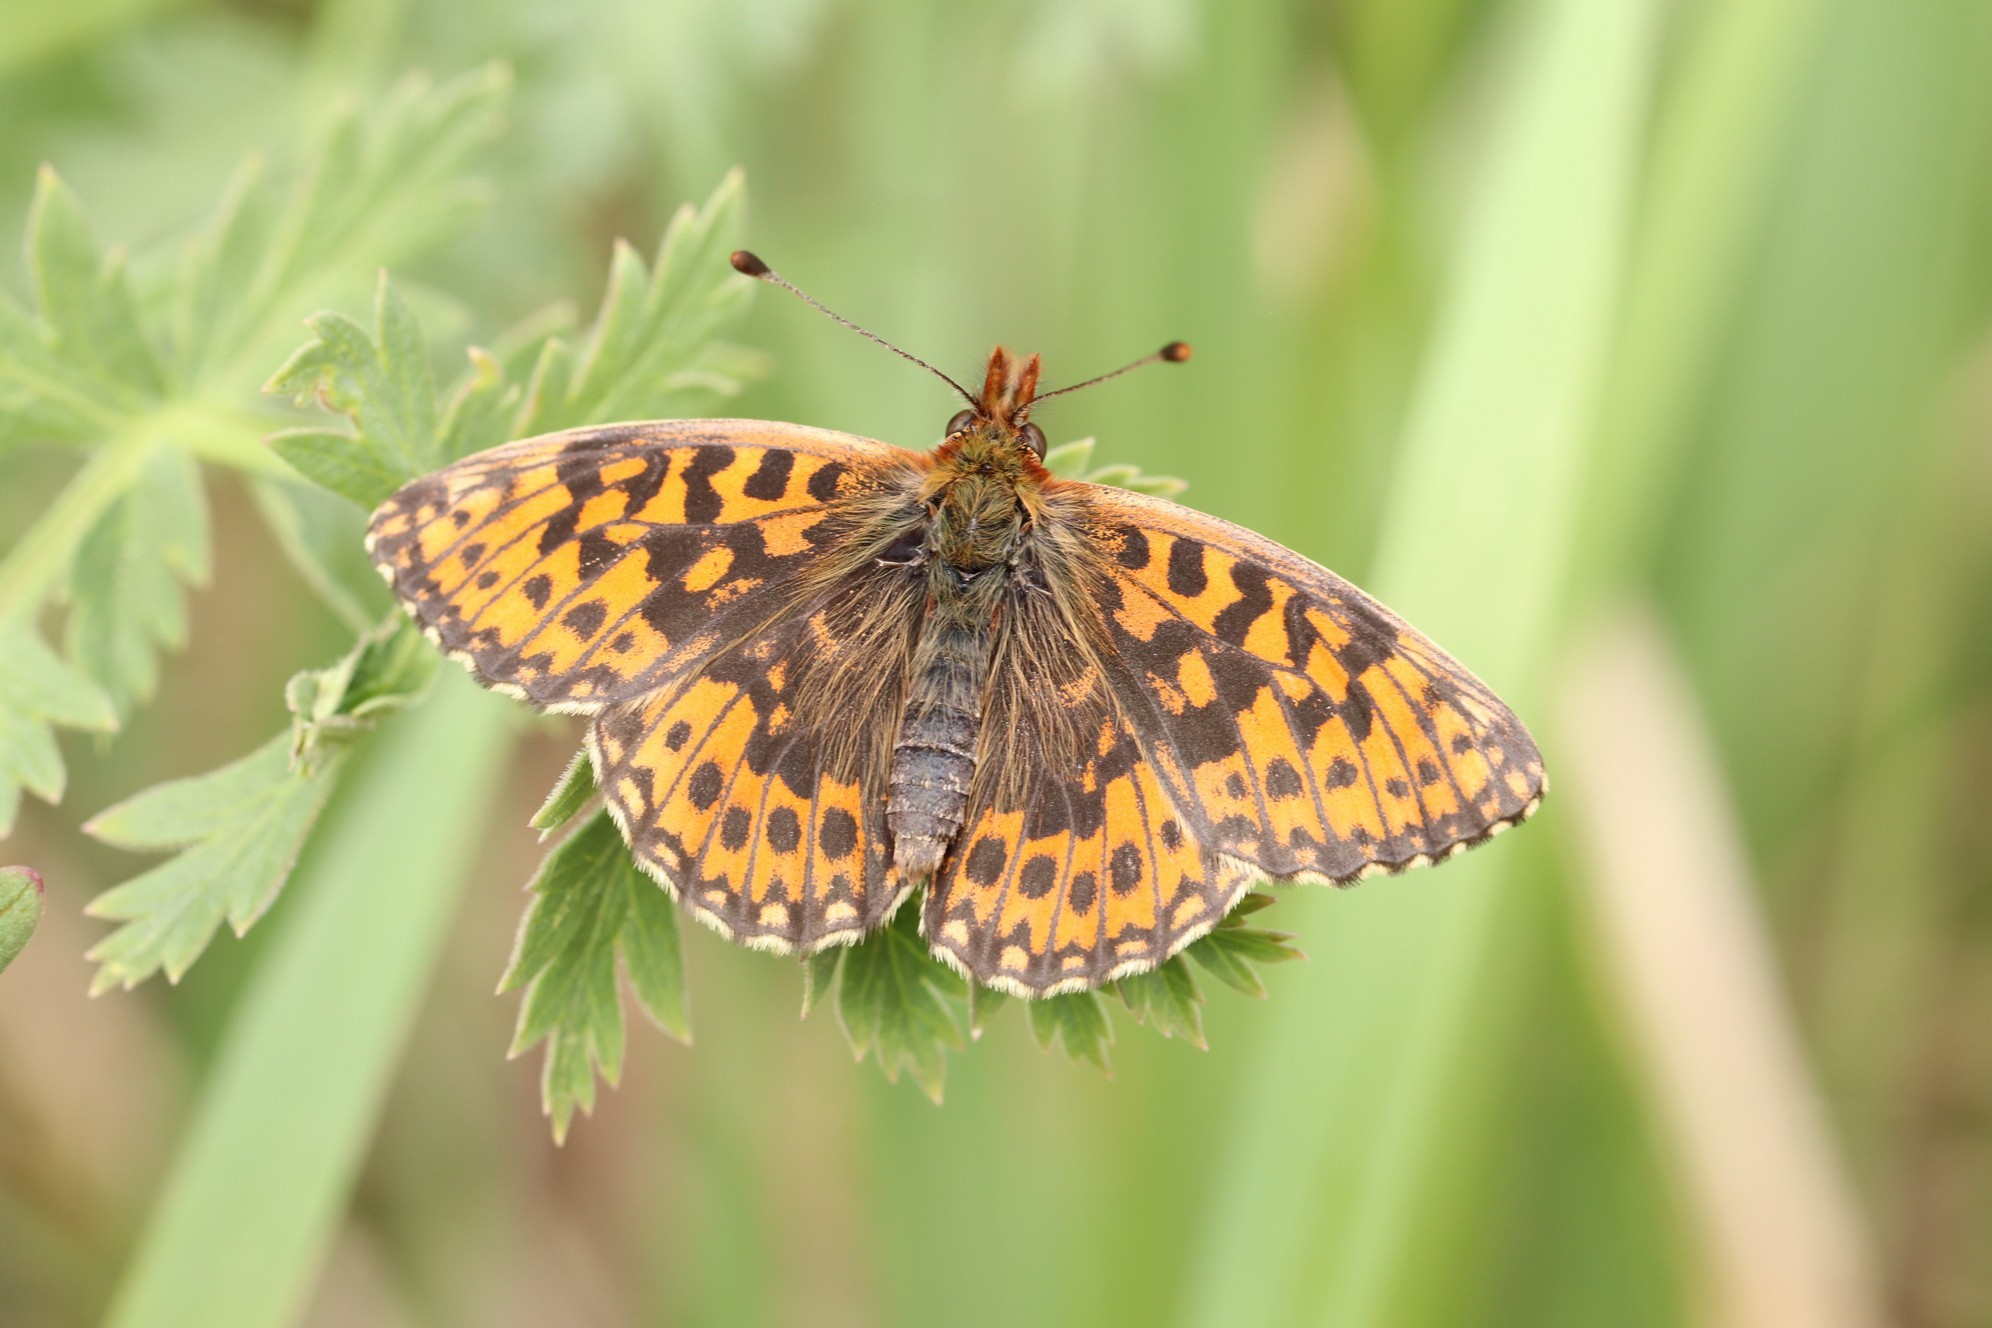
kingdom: Animalia
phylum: Arthropoda
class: Insecta
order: Lepidoptera
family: Nymphalidae
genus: Boloria
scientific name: Boloria dia
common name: Weaver's fritillary
